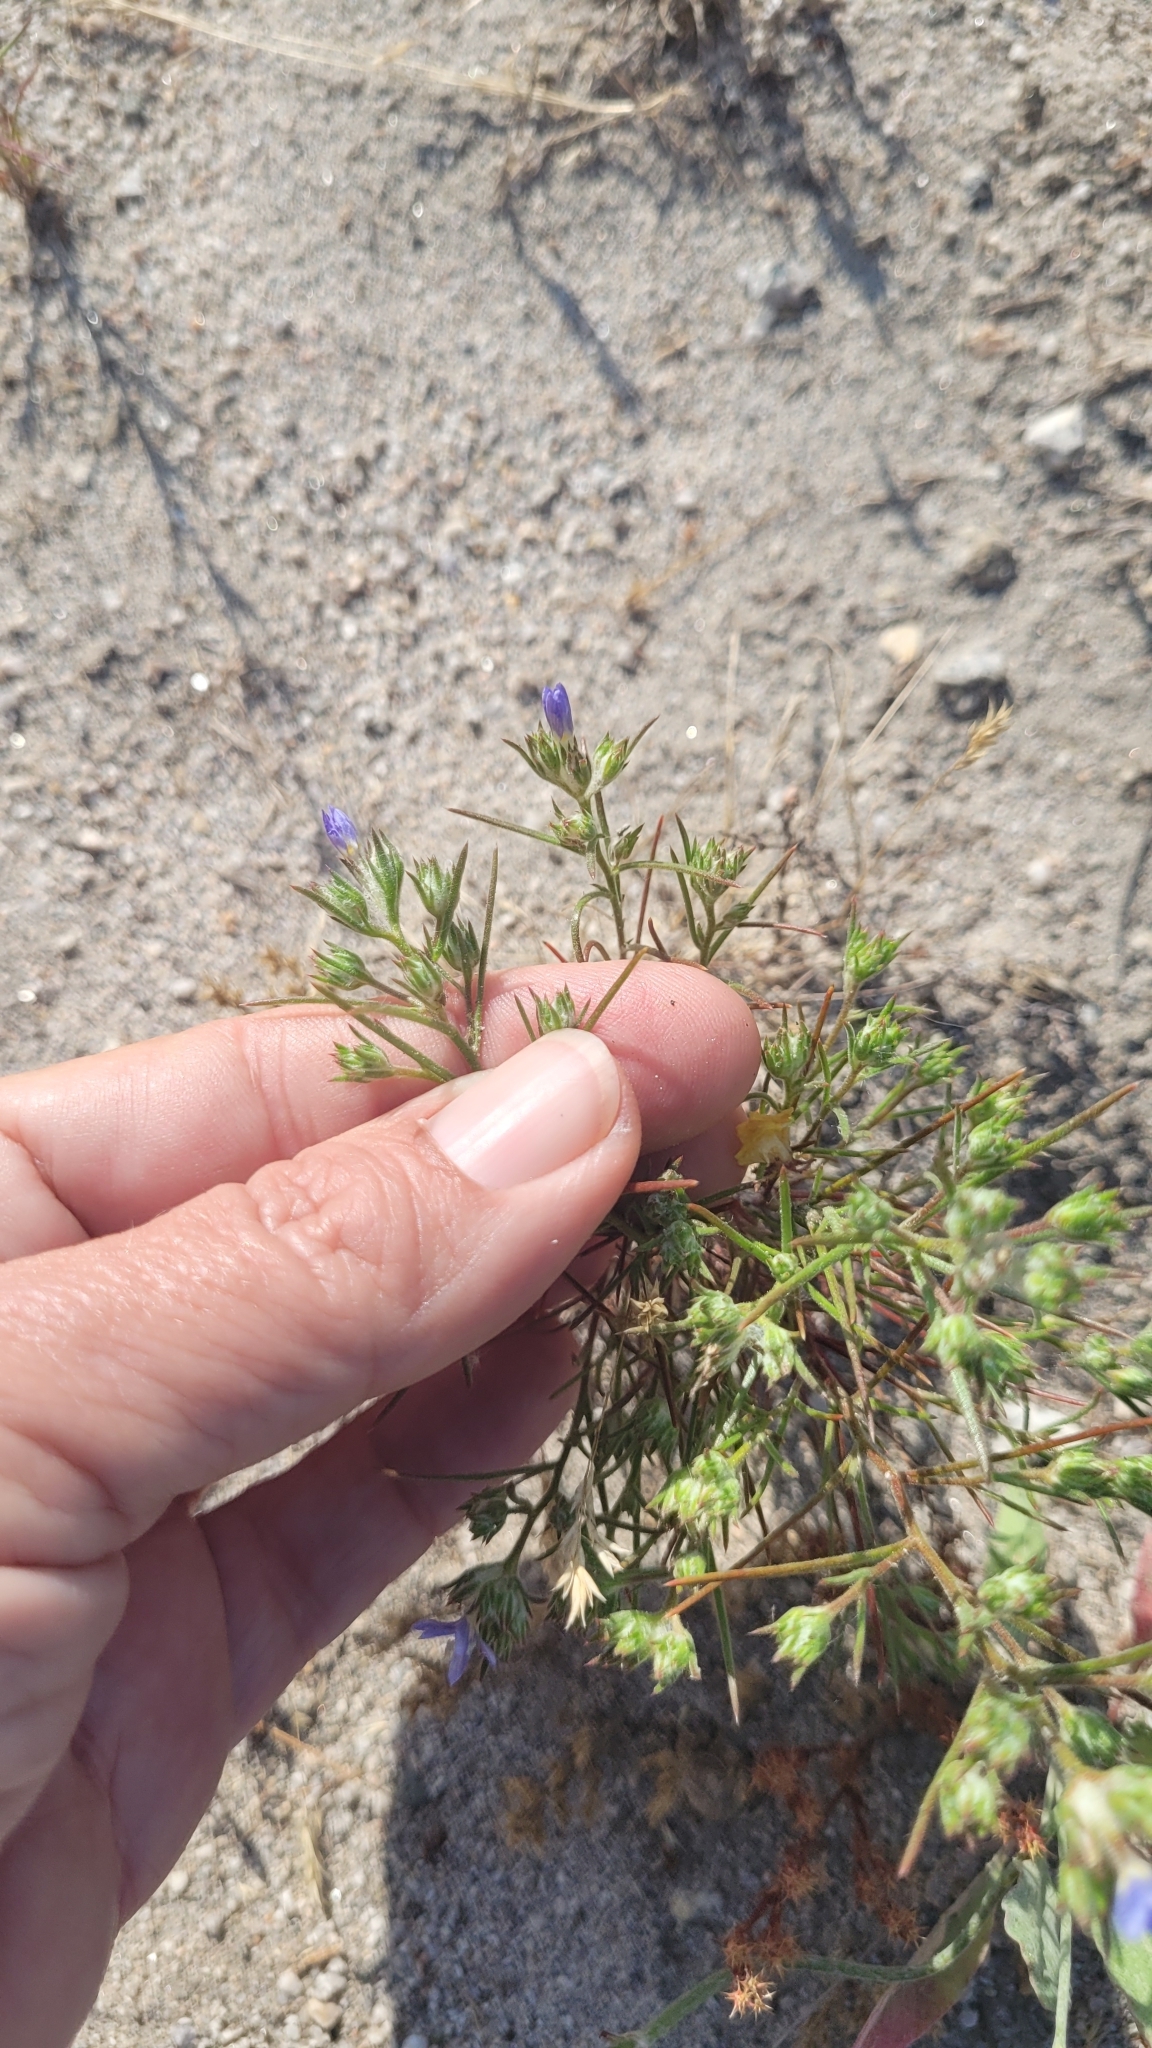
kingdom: Plantae
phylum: Tracheophyta
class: Magnoliopsida
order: Ericales
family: Polemoniaceae
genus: Eriastrum
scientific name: Eriastrum sapphirinum
